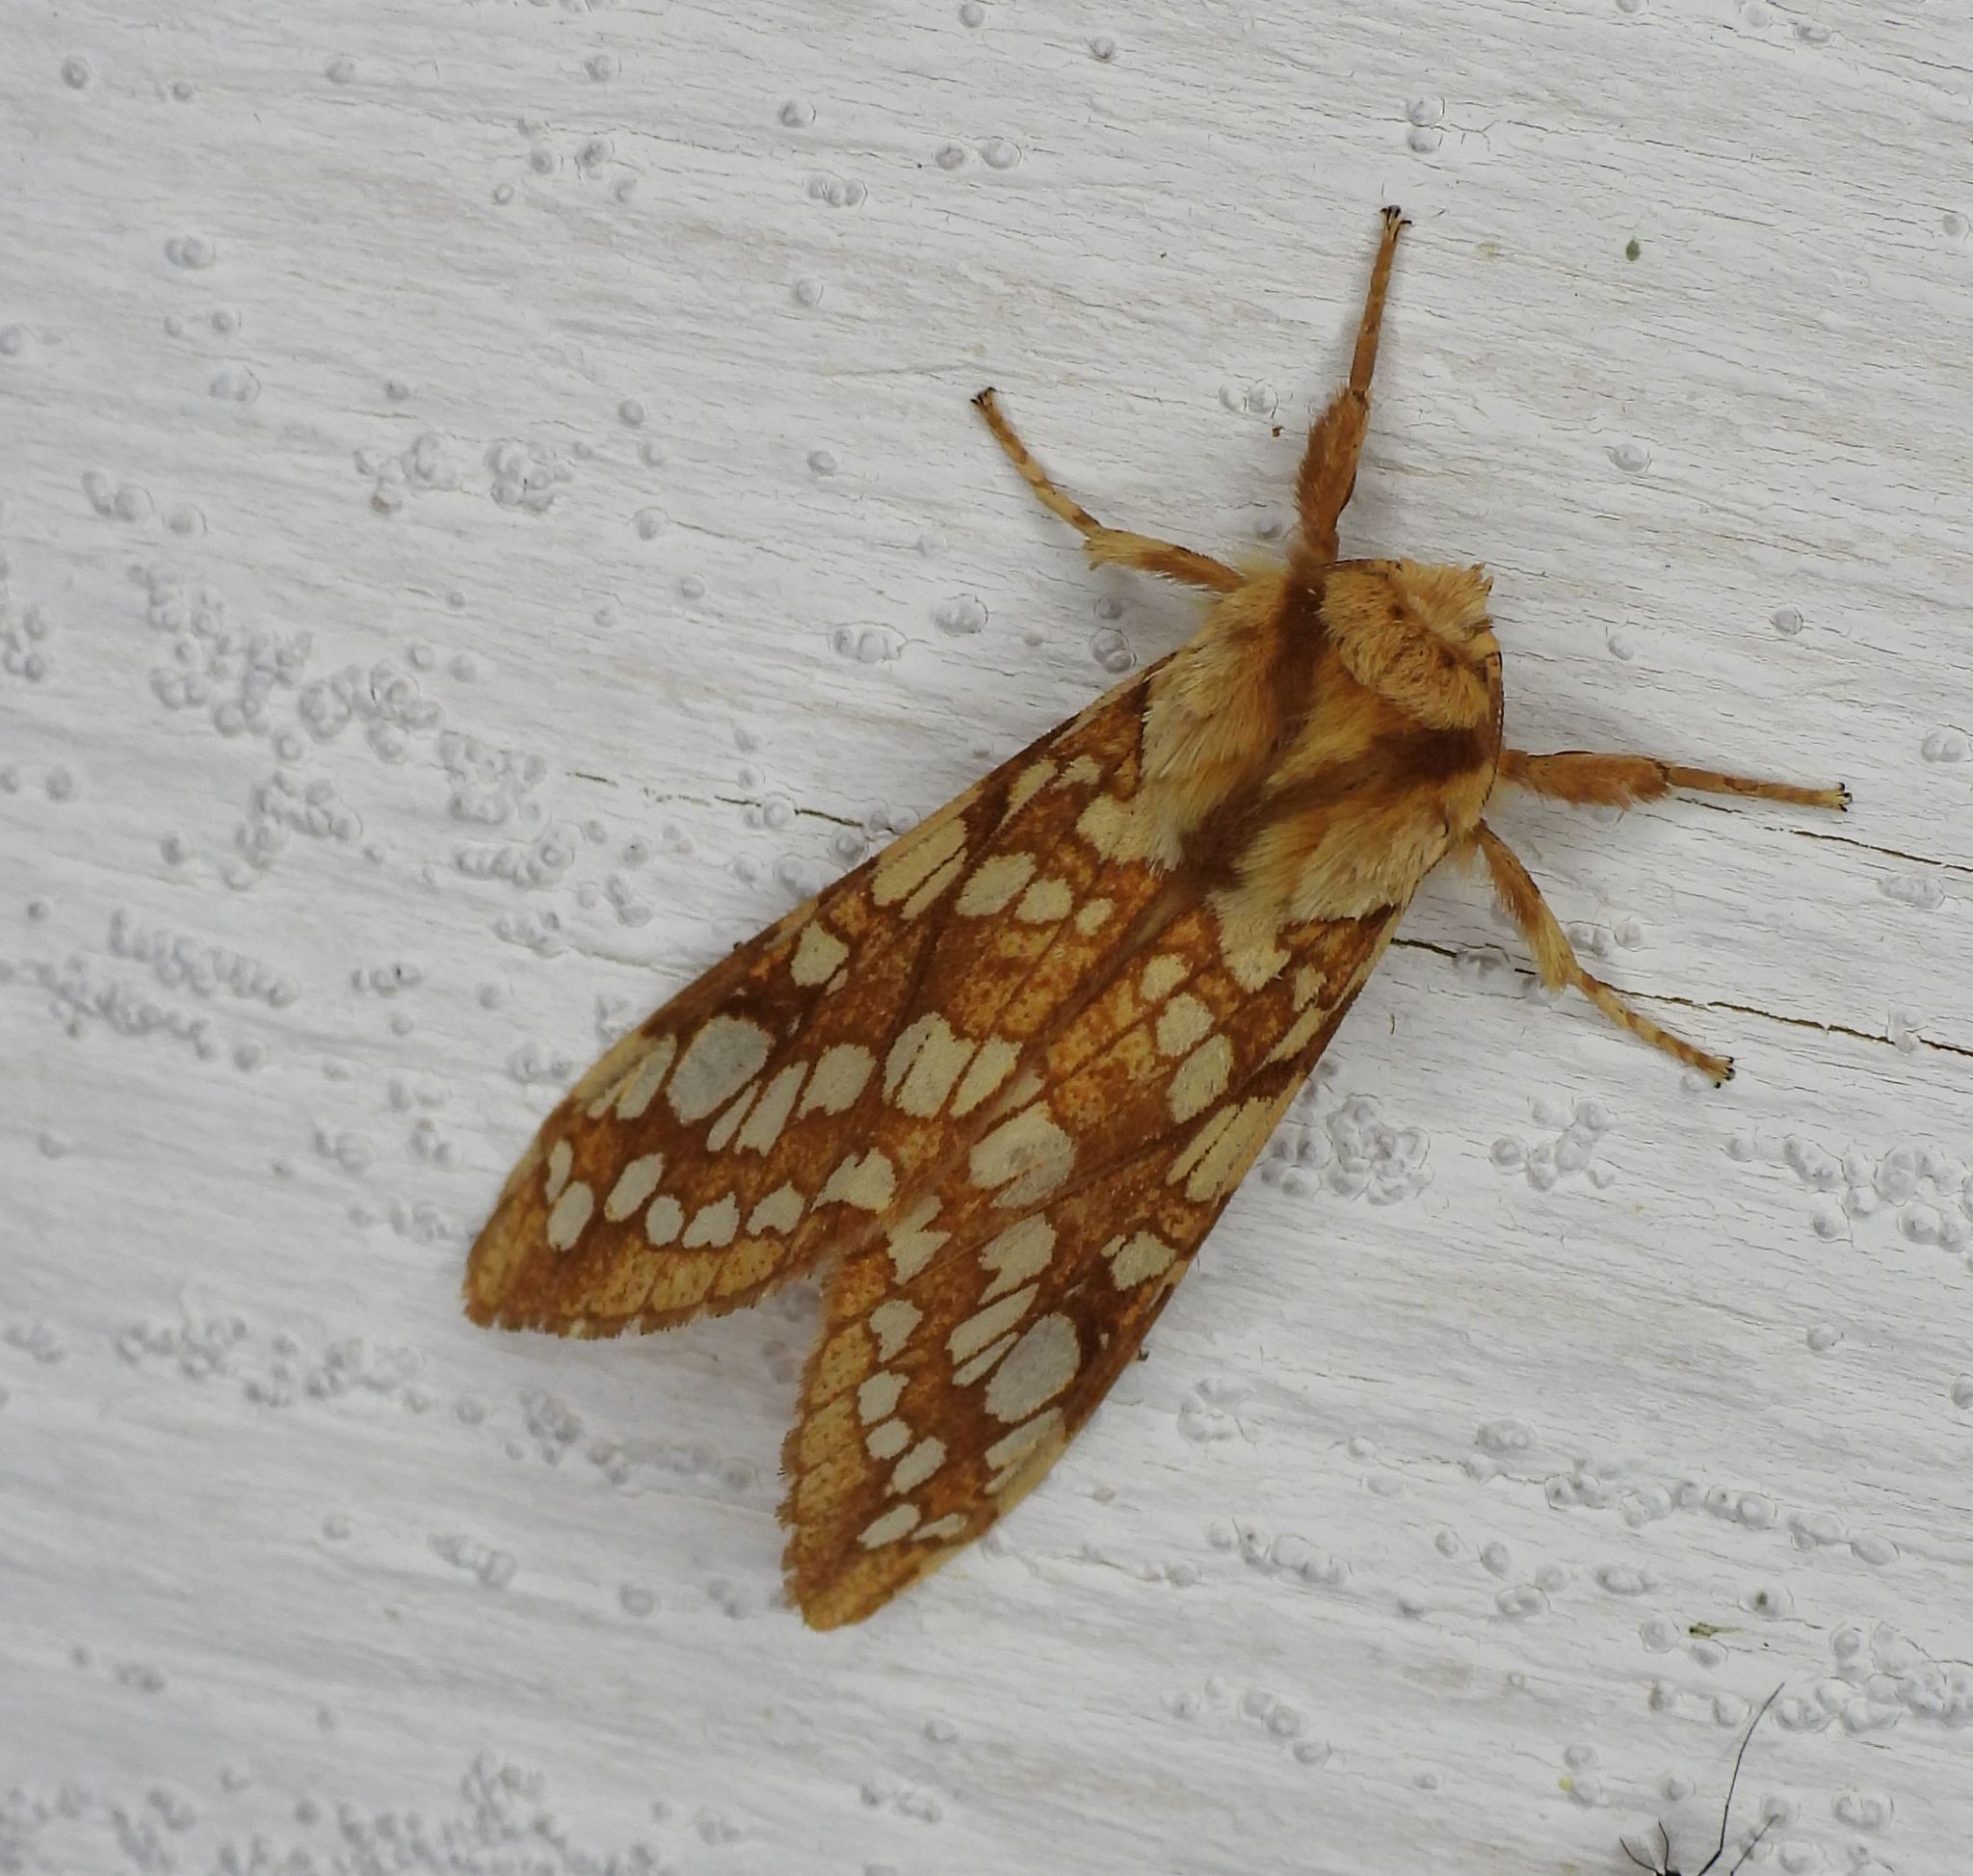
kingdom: Animalia
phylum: Arthropoda
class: Insecta
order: Lepidoptera
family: Erebidae
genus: Lophocampa
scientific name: Lophocampa caryae
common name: Hickory tussock moth
